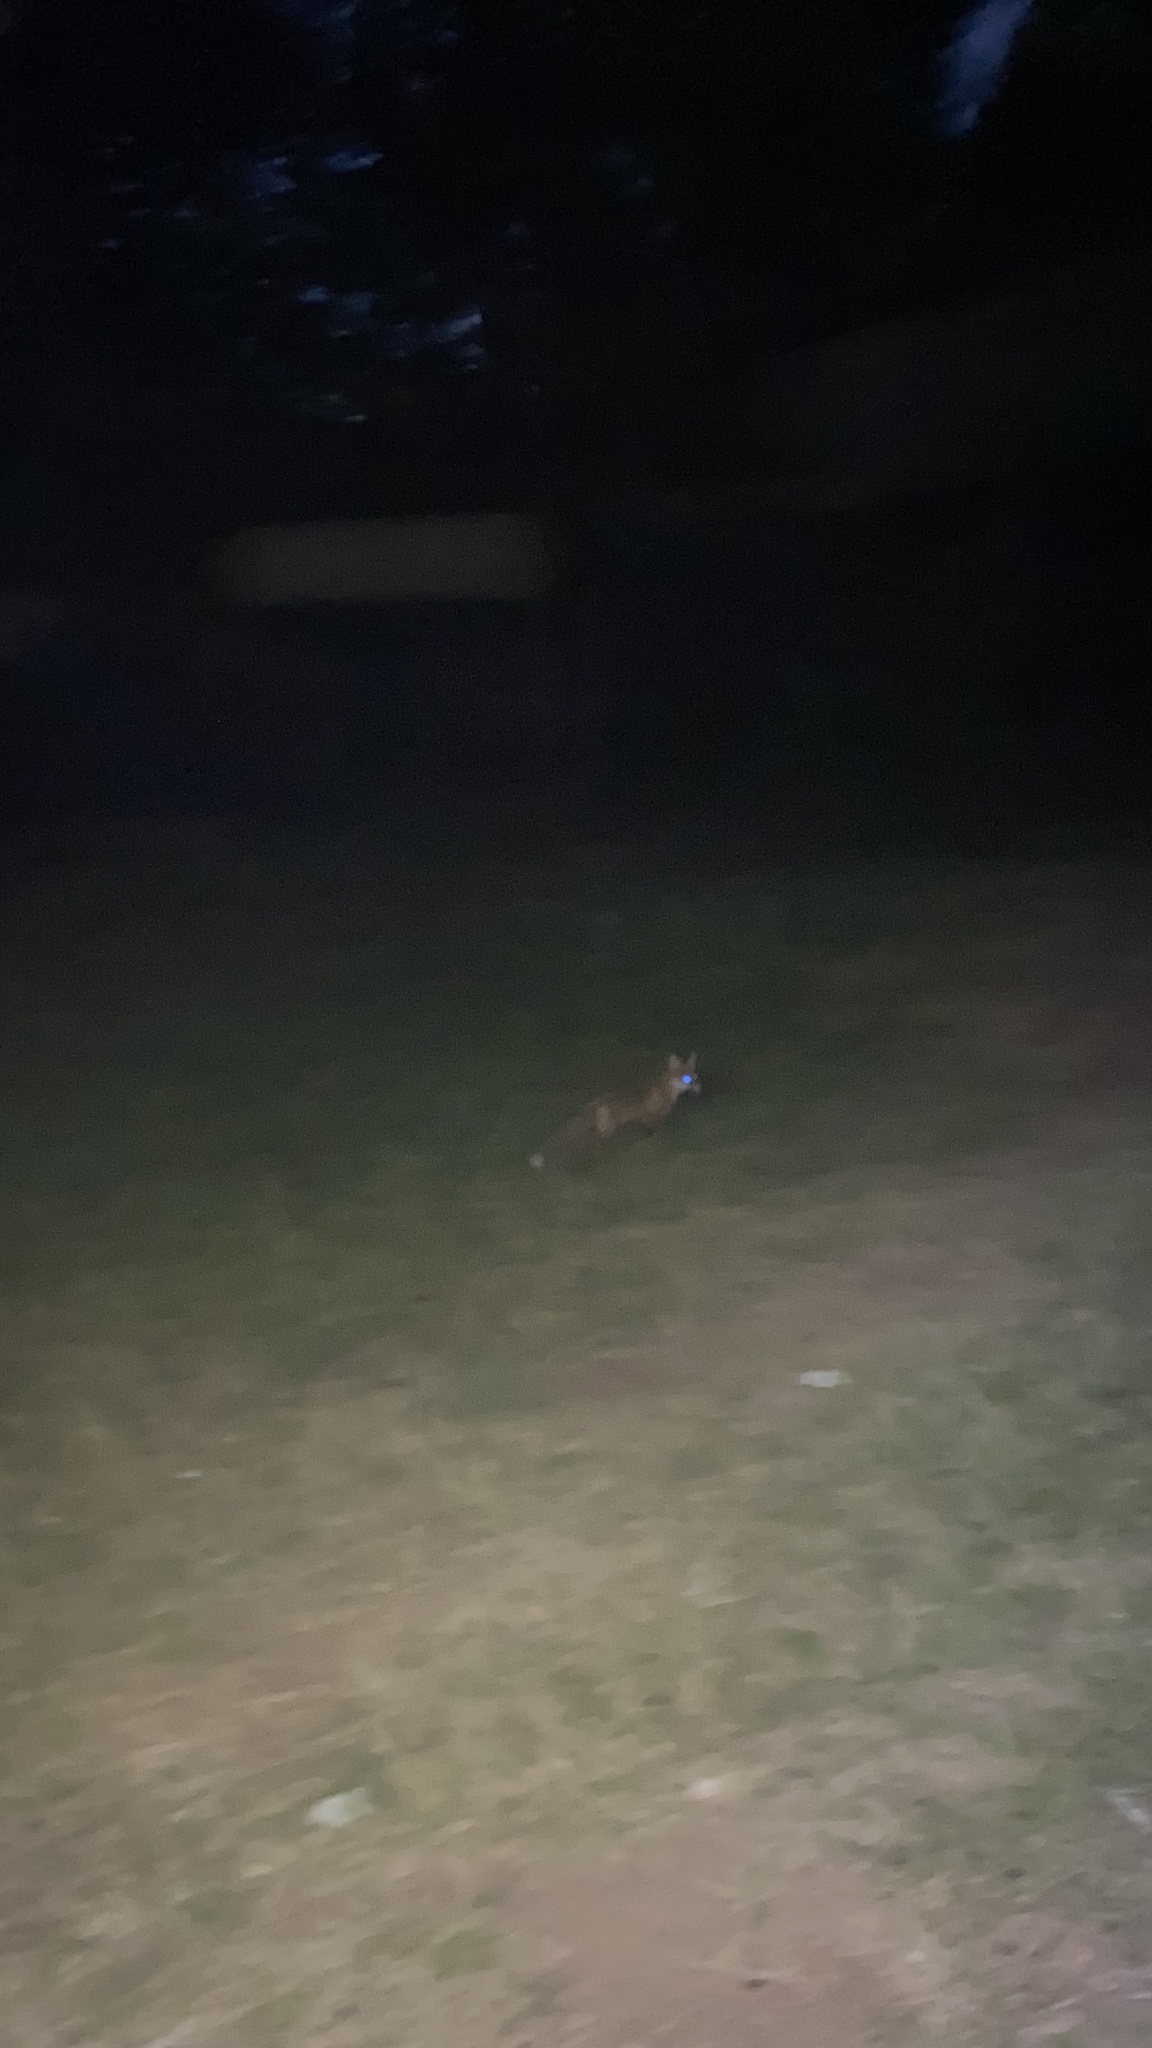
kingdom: Animalia
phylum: Chordata
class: Mammalia
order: Carnivora
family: Canidae
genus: Vulpes
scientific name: Vulpes vulpes
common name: Red fox
